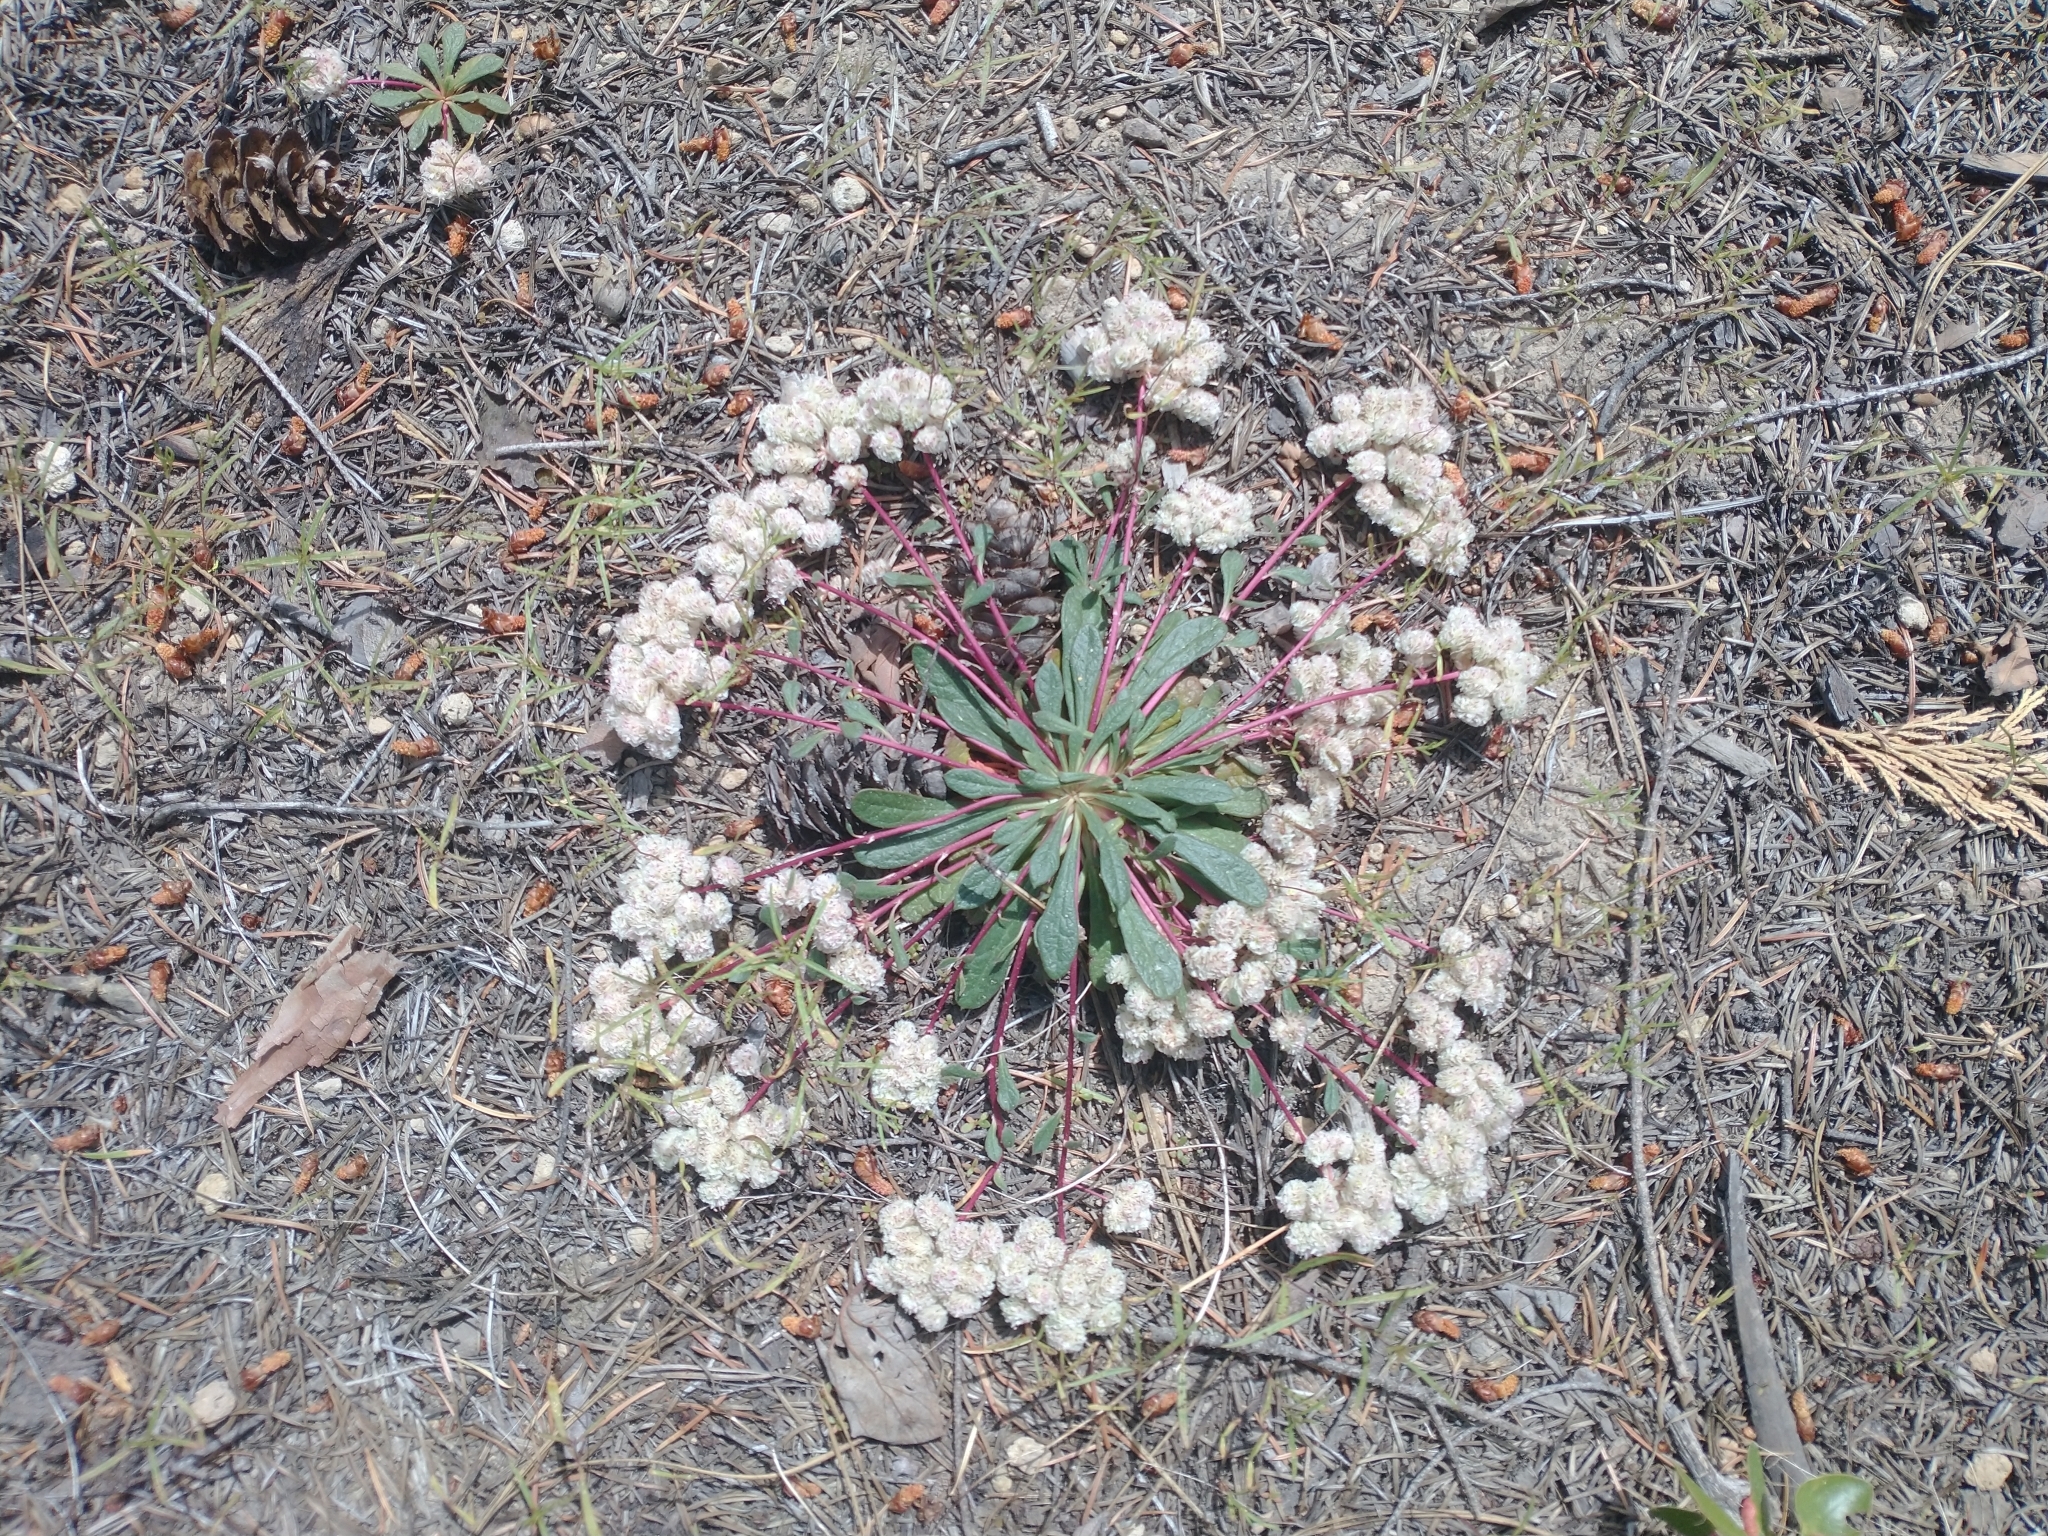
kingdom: Plantae
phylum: Tracheophyta
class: Magnoliopsida
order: Caryophyllales
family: Montiaceae
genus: Calyptridium
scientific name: Calyptridium monospermum
